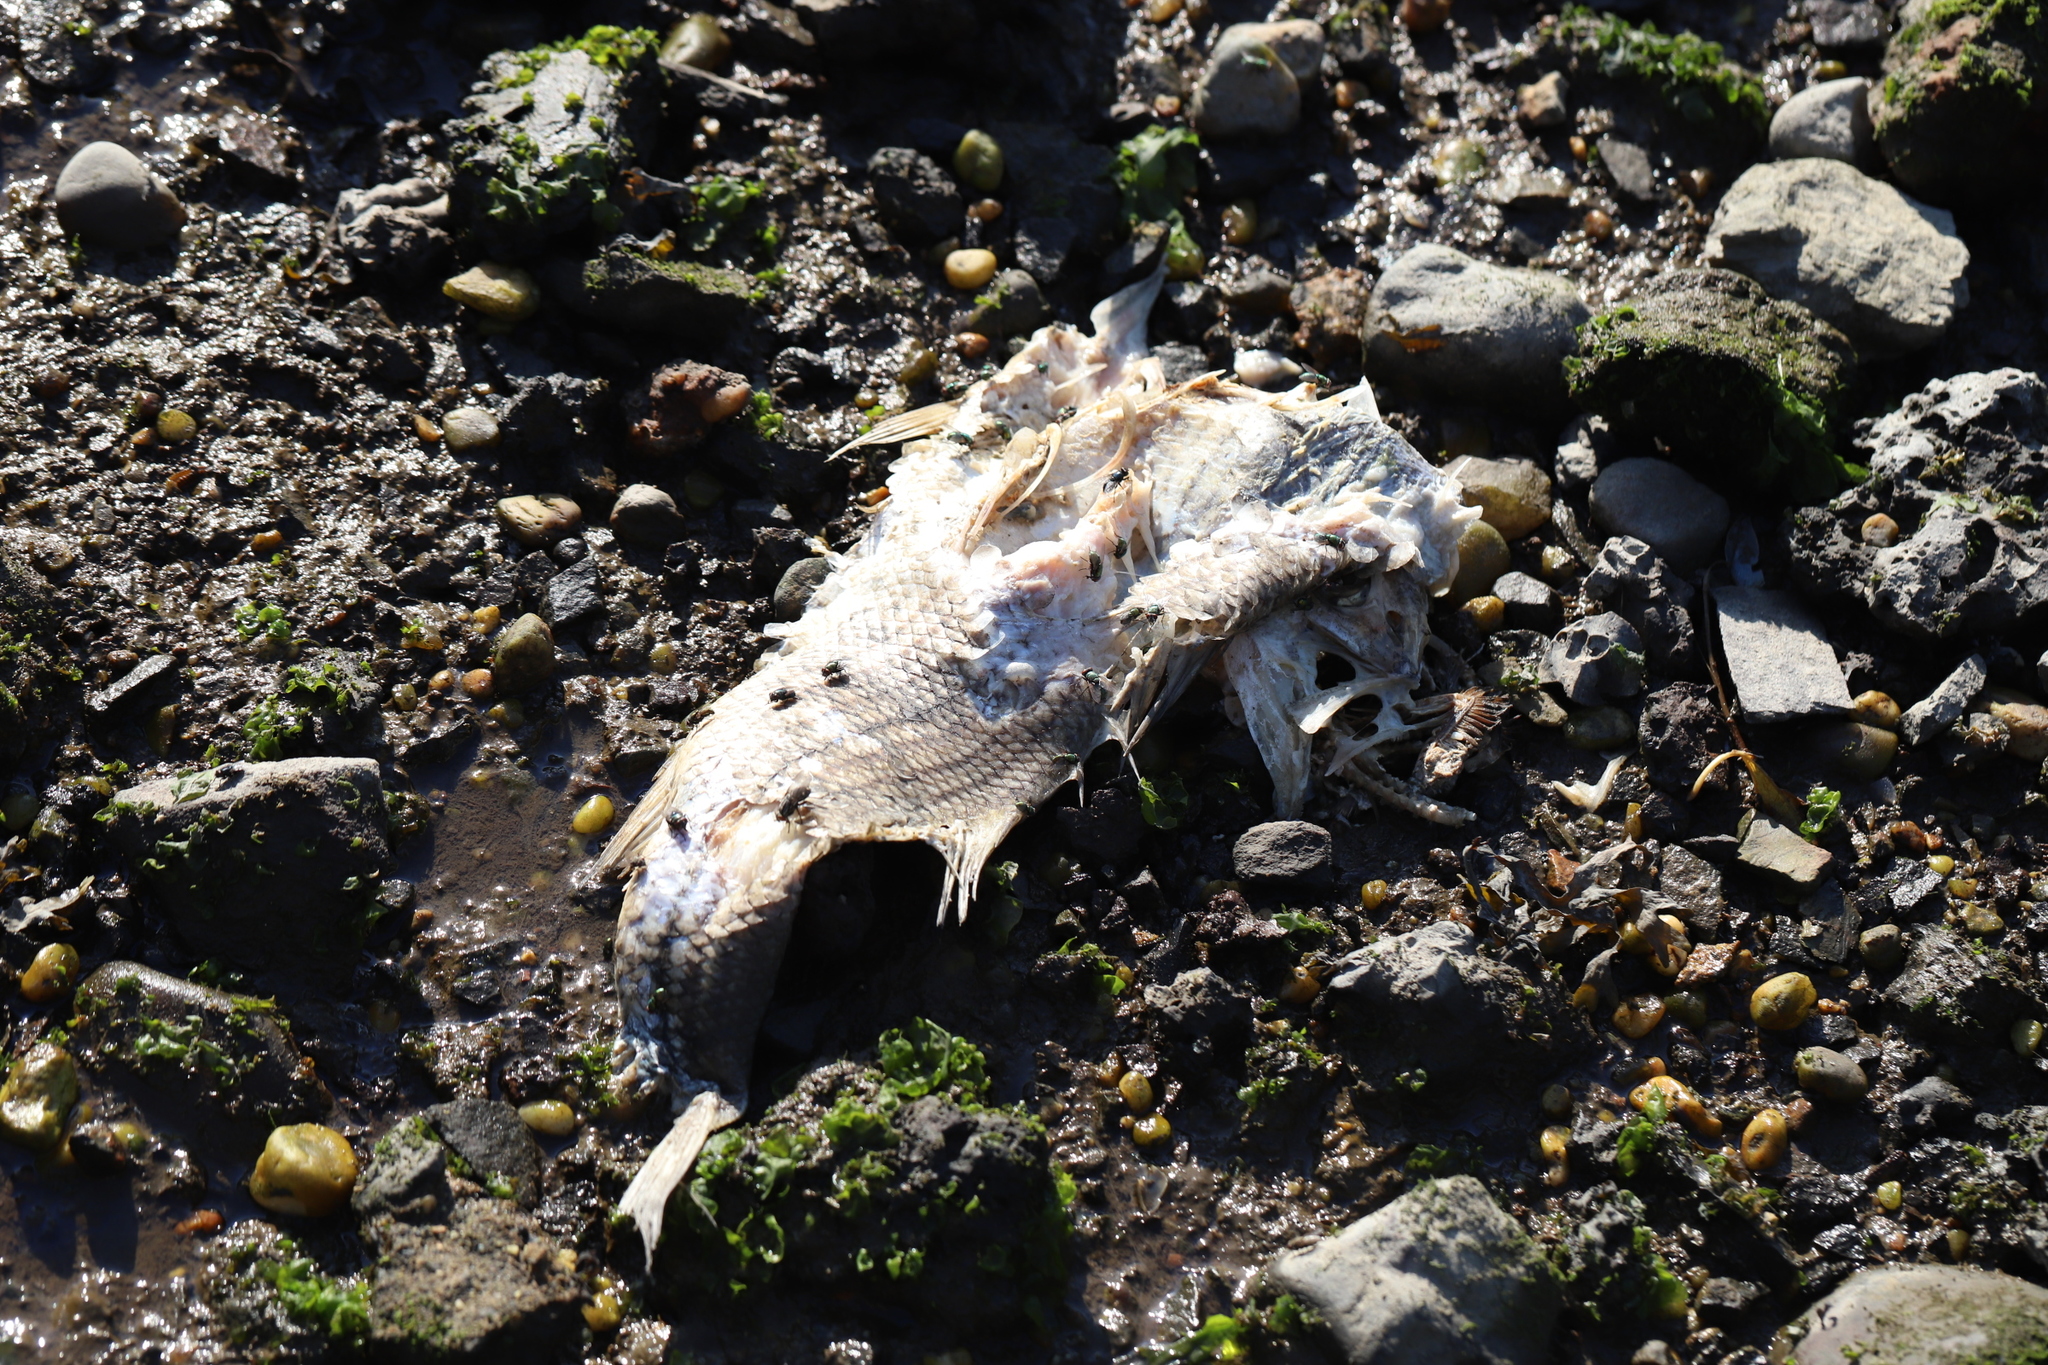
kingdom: Animalia
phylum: Chordata
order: Perciformes
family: Moronidae
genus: Morone
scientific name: Morone saxatilis
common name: Striped bass
